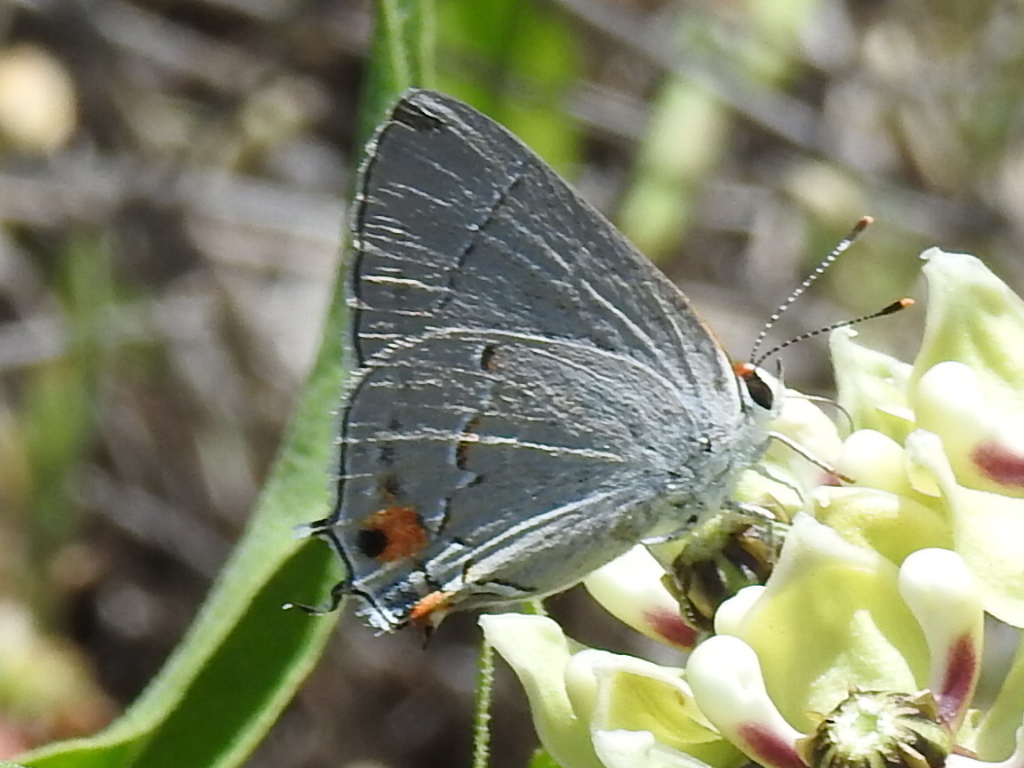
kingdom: Animalia
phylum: Arthropoda
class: Insecta
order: Lepidoptera
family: Lycaenidae
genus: Strymon
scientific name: Strymon melinus
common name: Gray hairstreak
